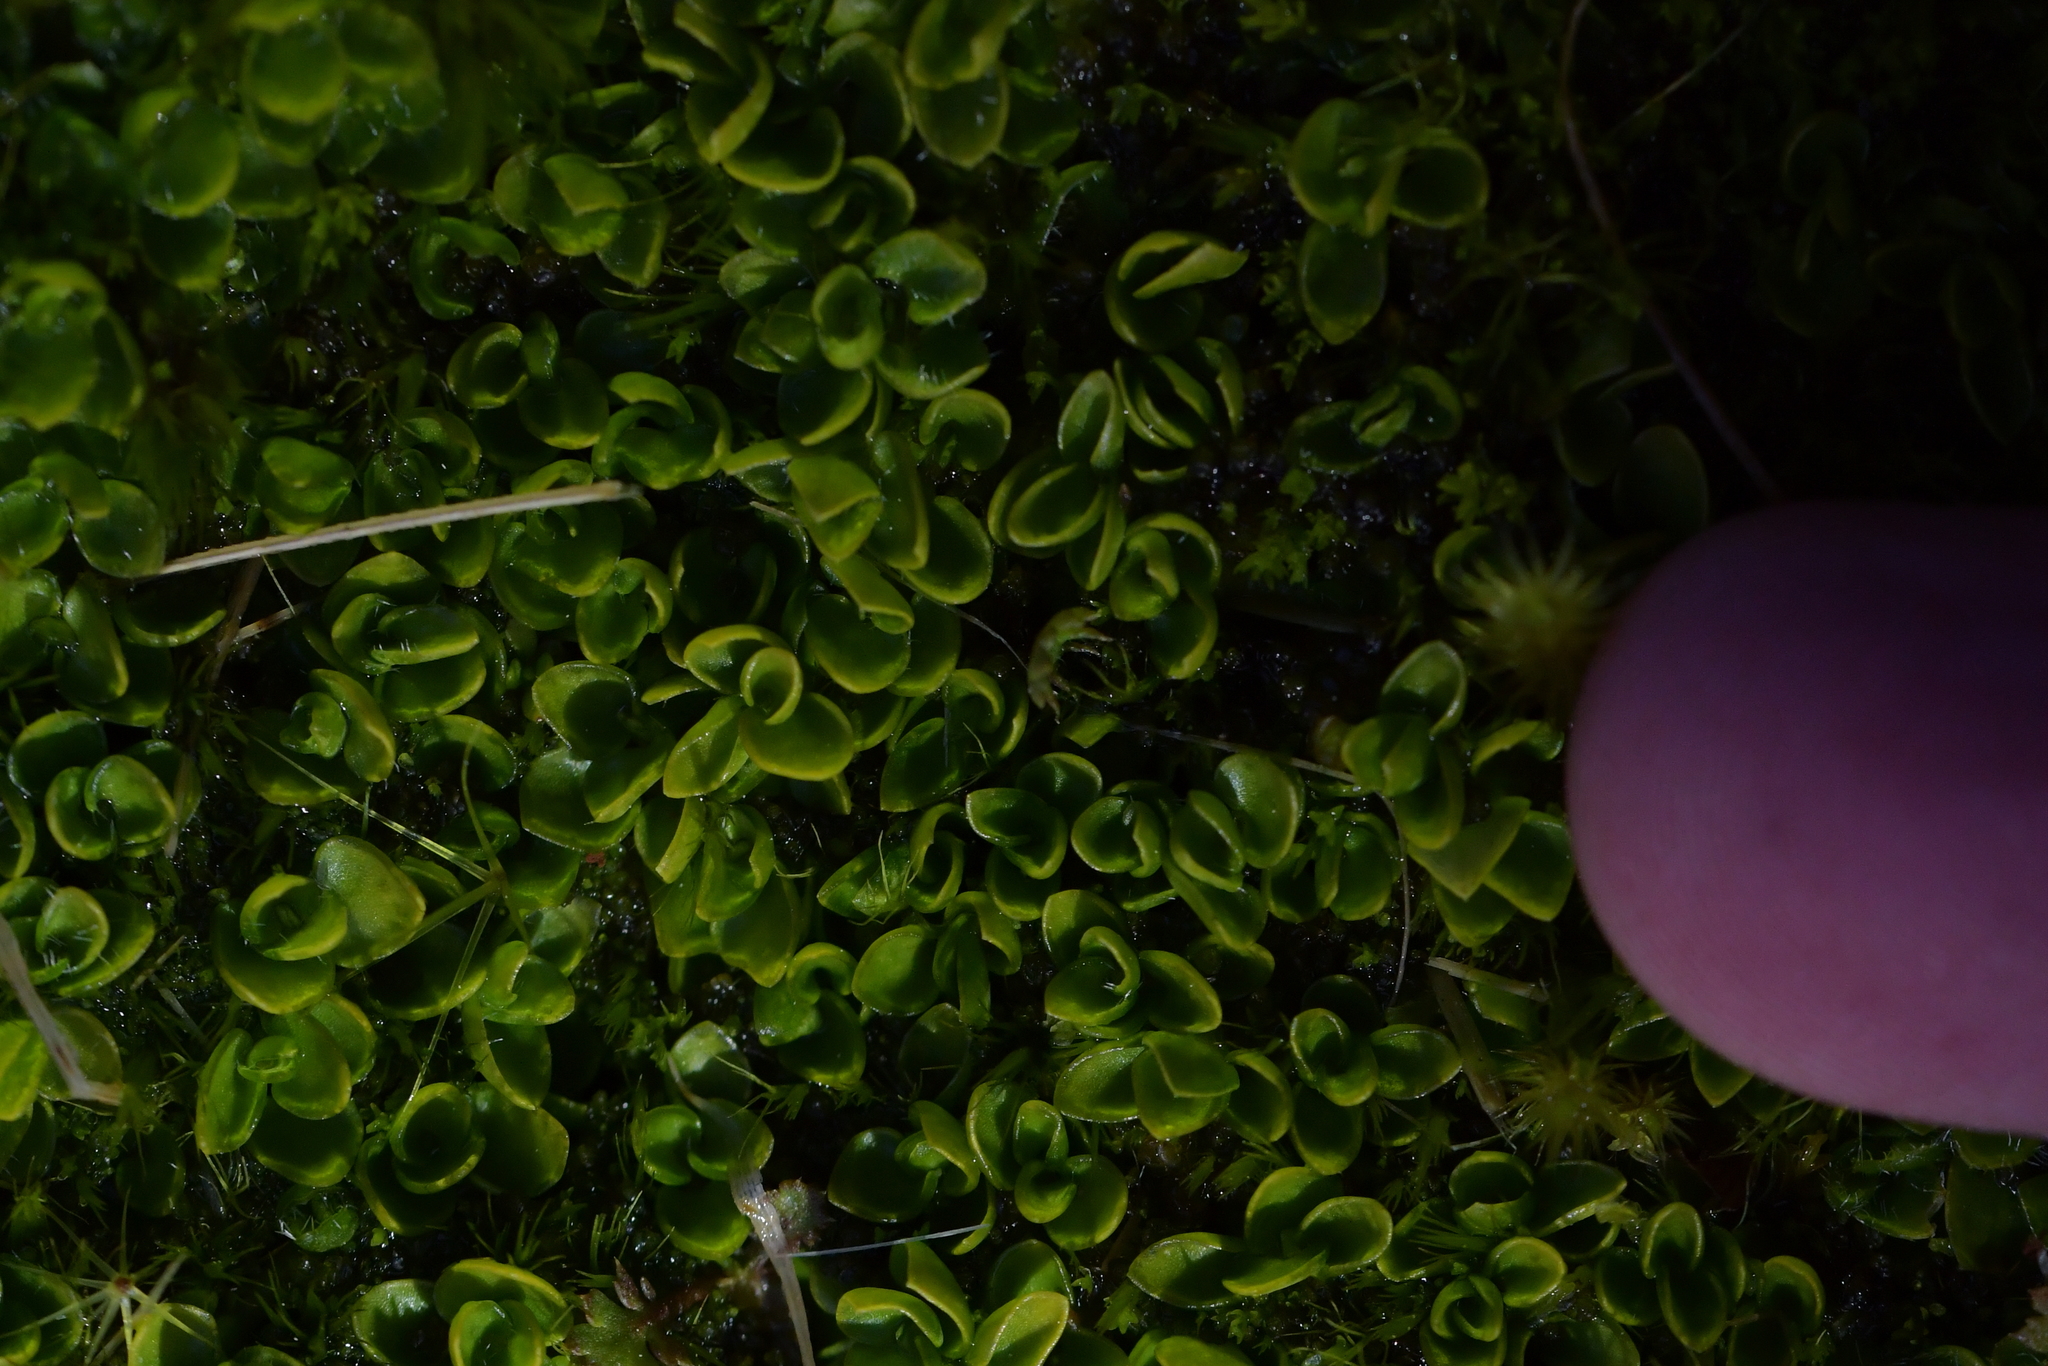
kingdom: Plantae
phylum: Tracheophyta
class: Magnoliopsida
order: Gentianales
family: Rubiaceae
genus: Nertera
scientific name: Nertera ciliata
